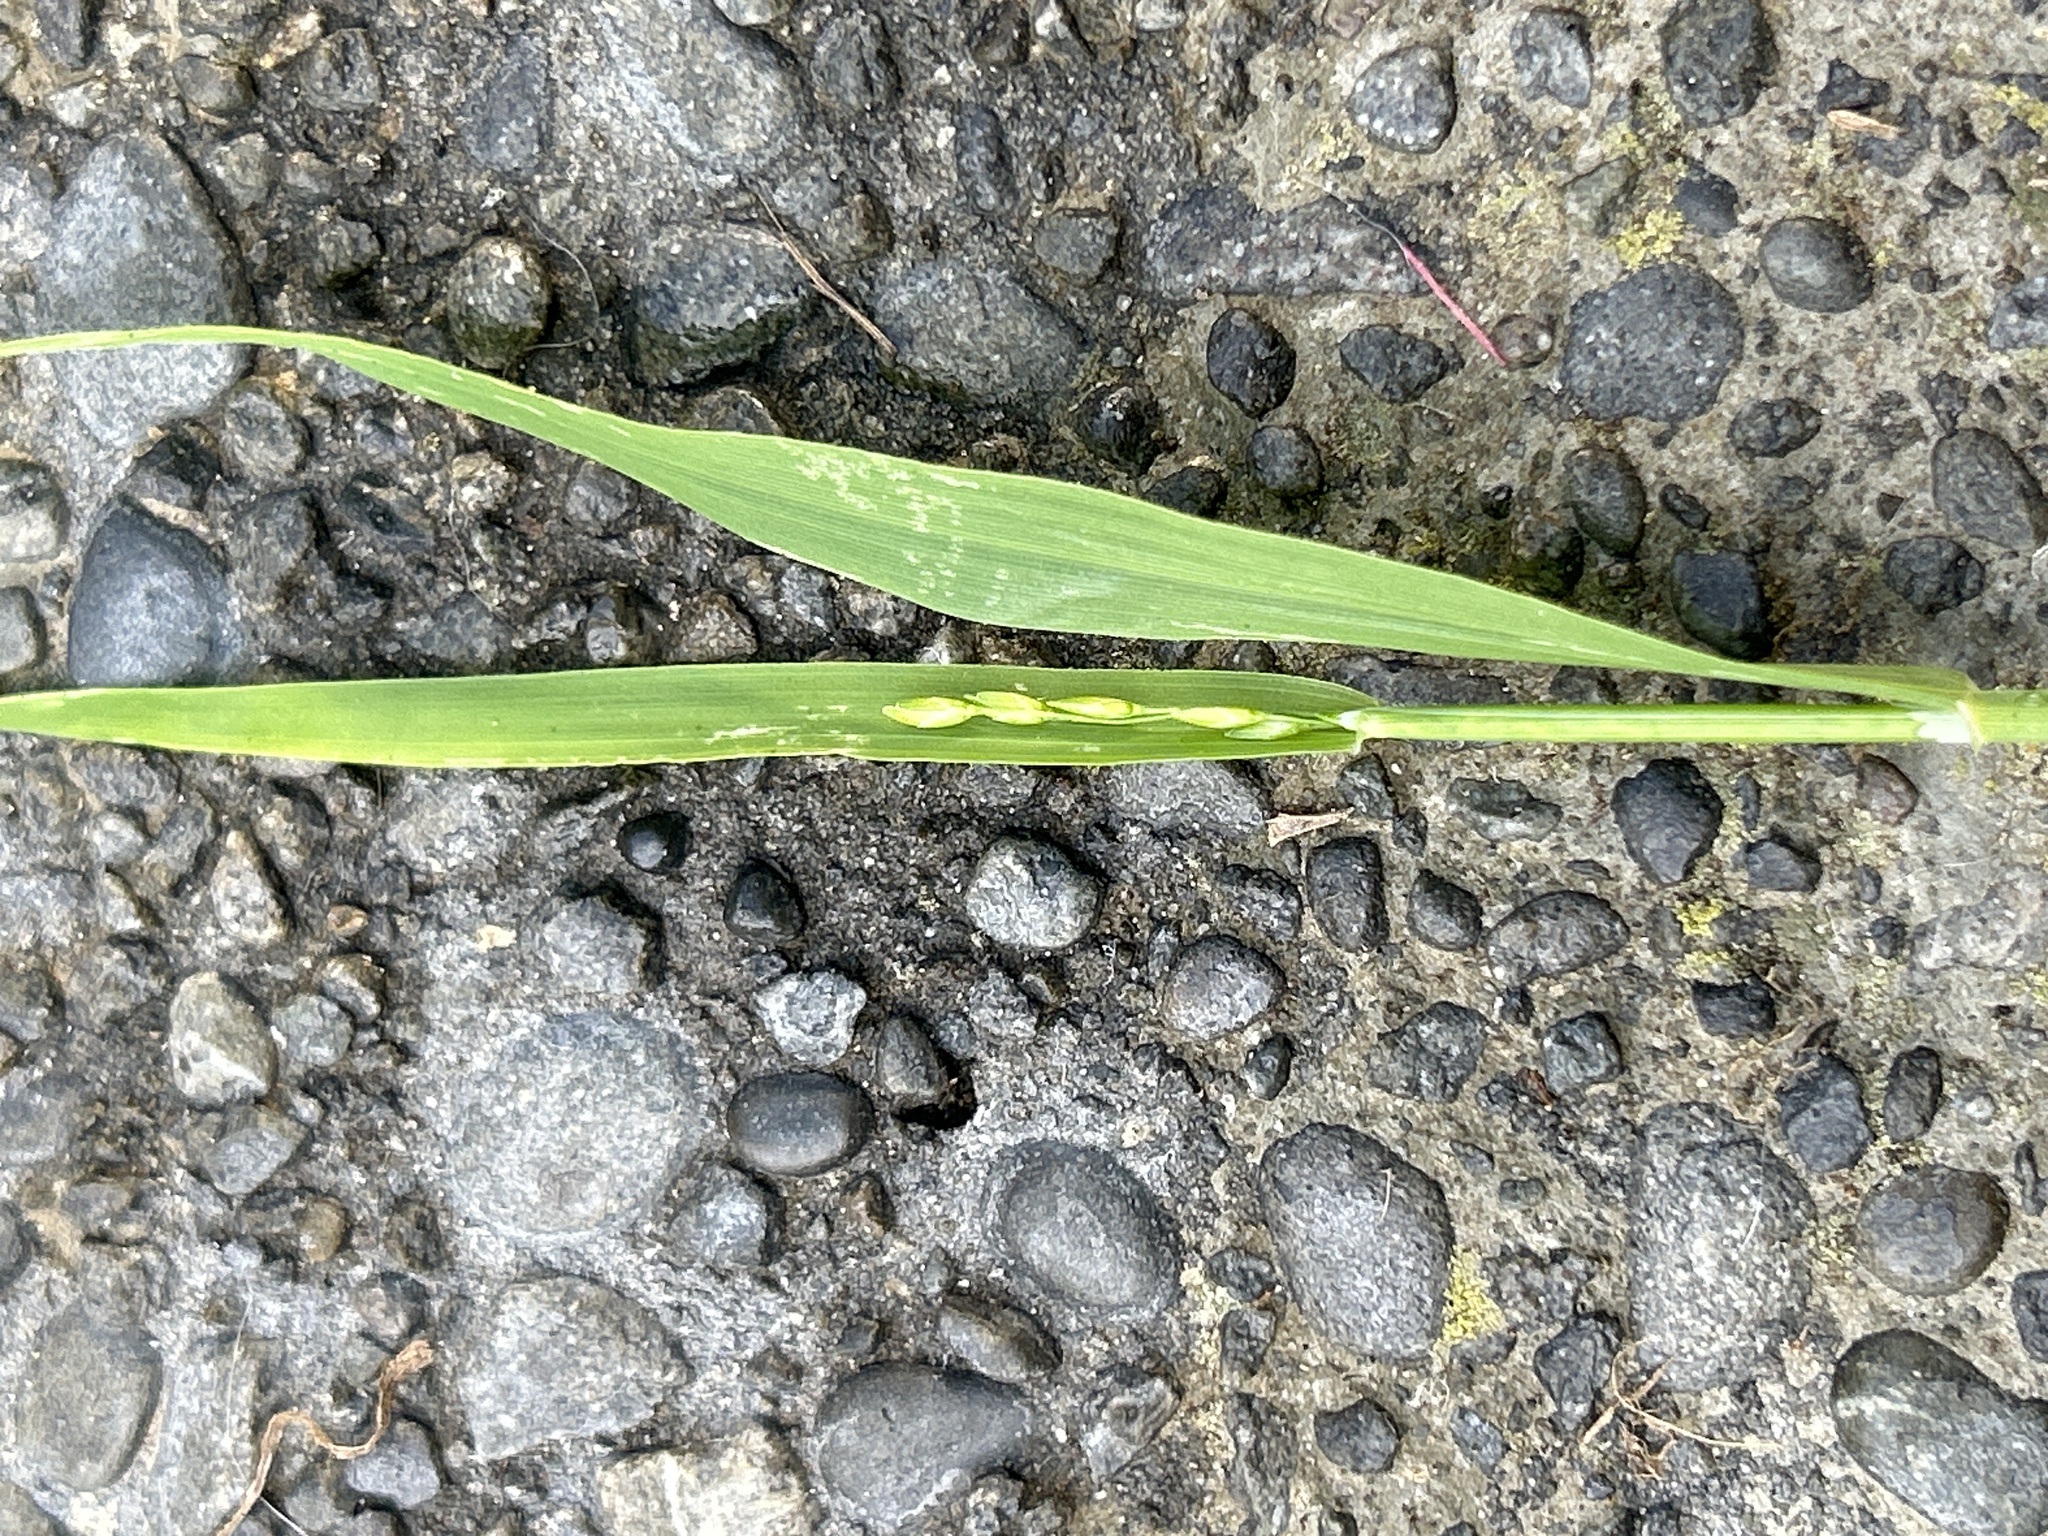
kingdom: Plantae
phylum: Tracheophyta
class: Liliopsida
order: Poales
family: Poaceae
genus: Ehrharta
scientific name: Ehrharta erecta
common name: Panic veldtgrass
